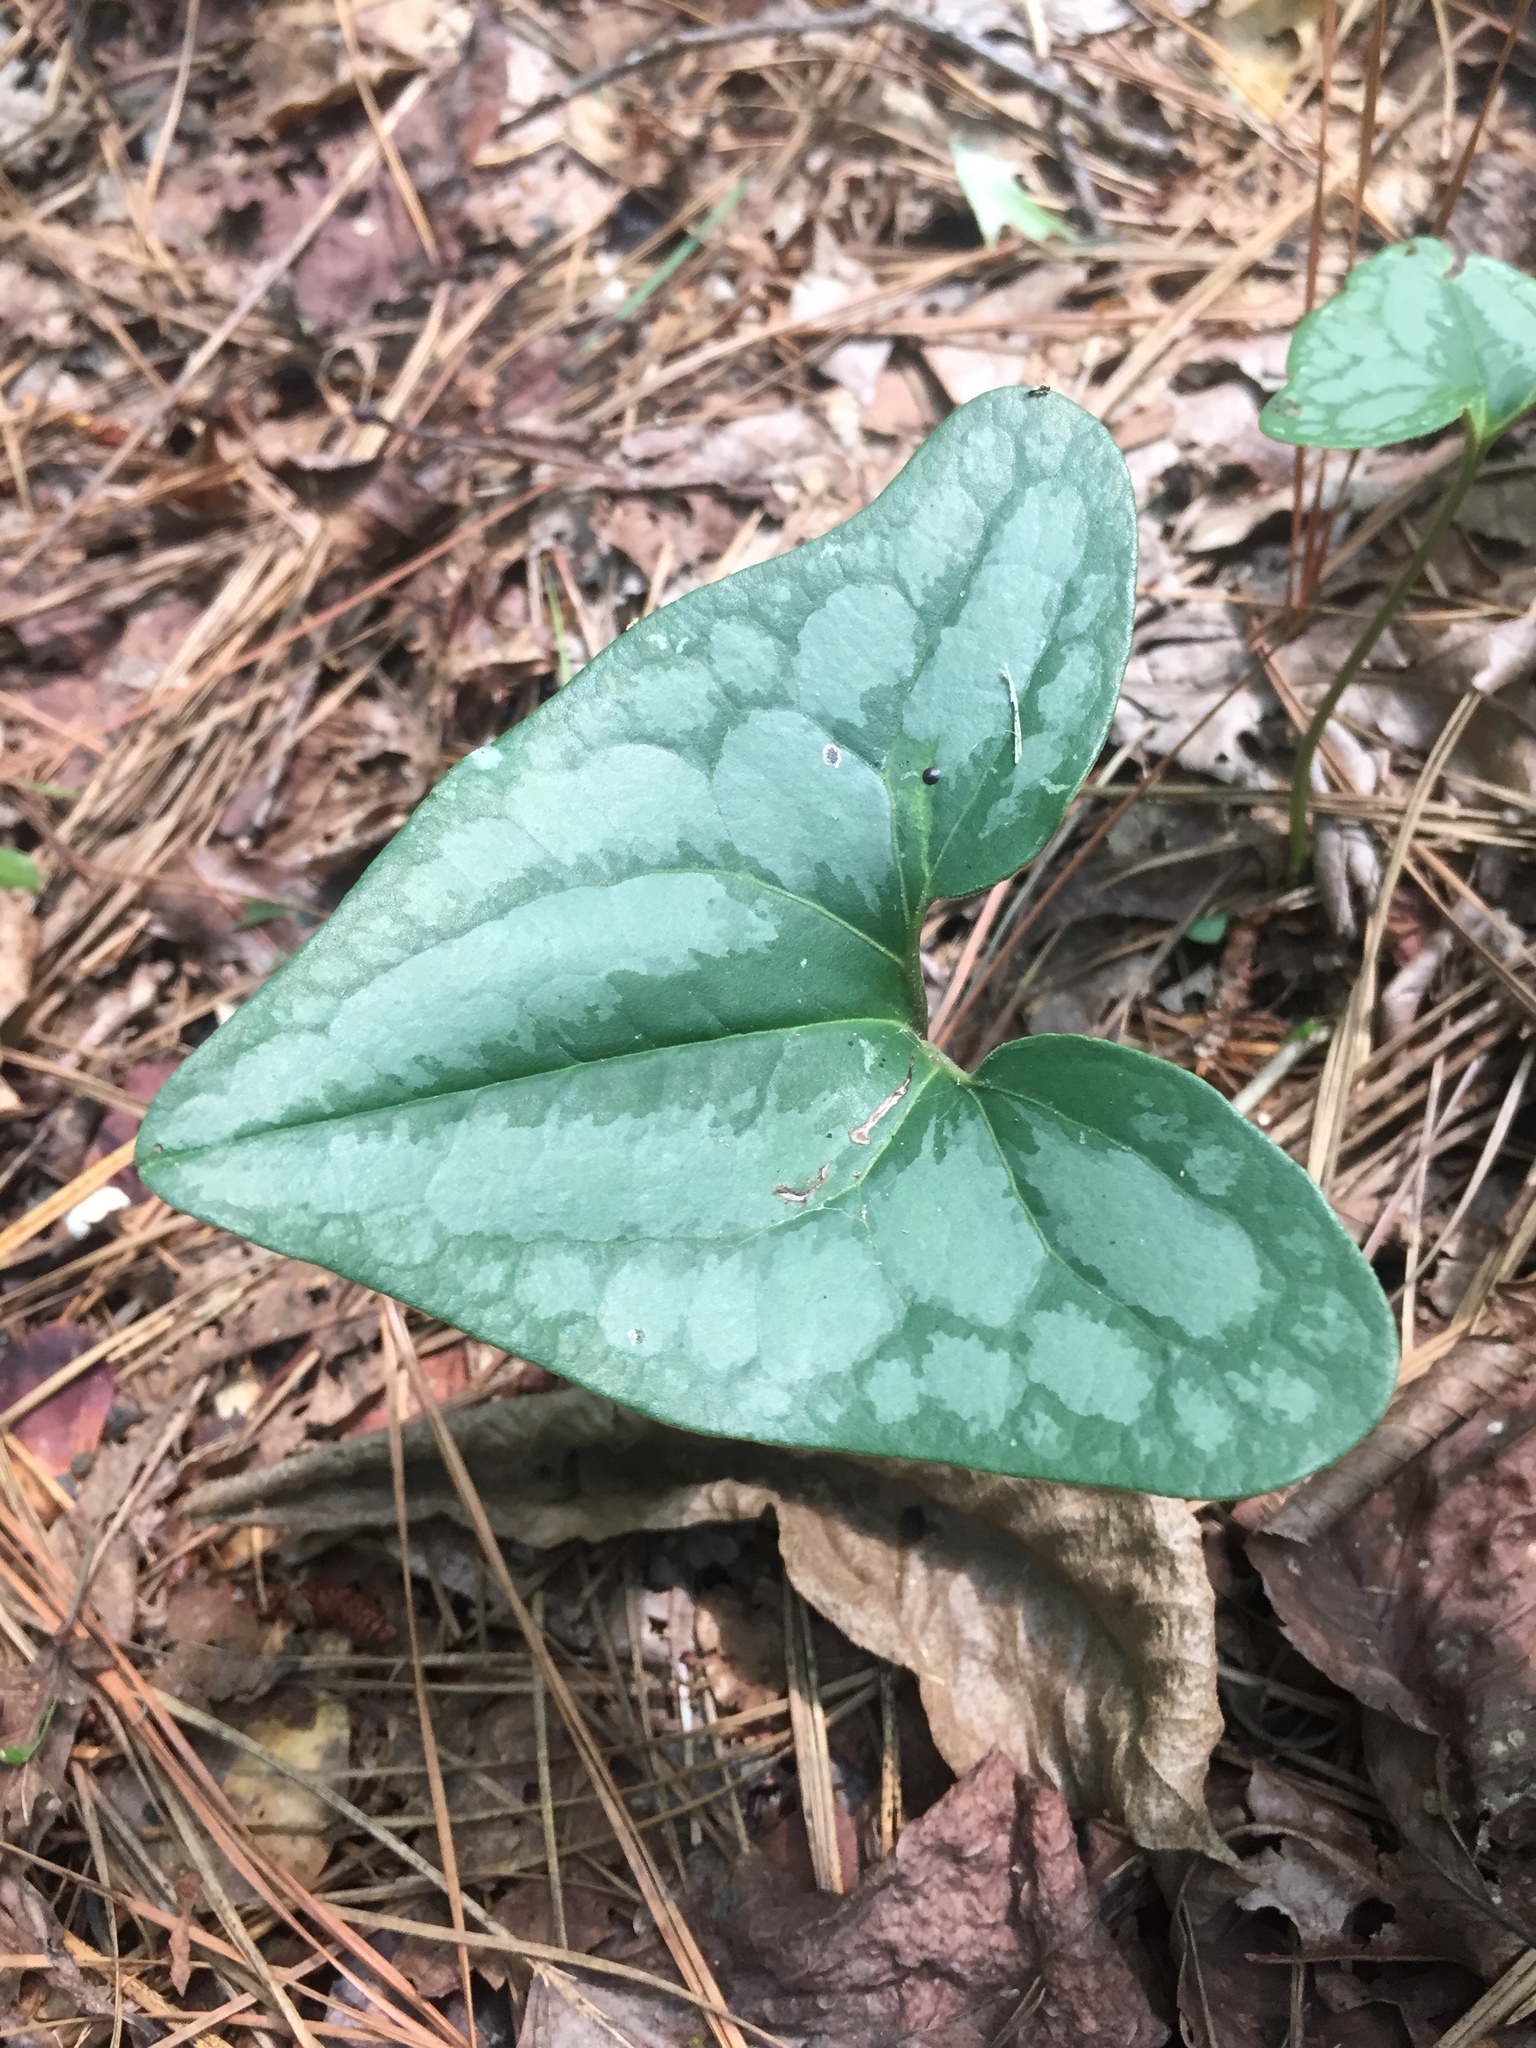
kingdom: Plantae
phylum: Tracheophyta
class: Magnoliopsida
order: Piperales
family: Aristolochiaceae
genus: Hexastylis
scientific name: Hexastylis arifolia
